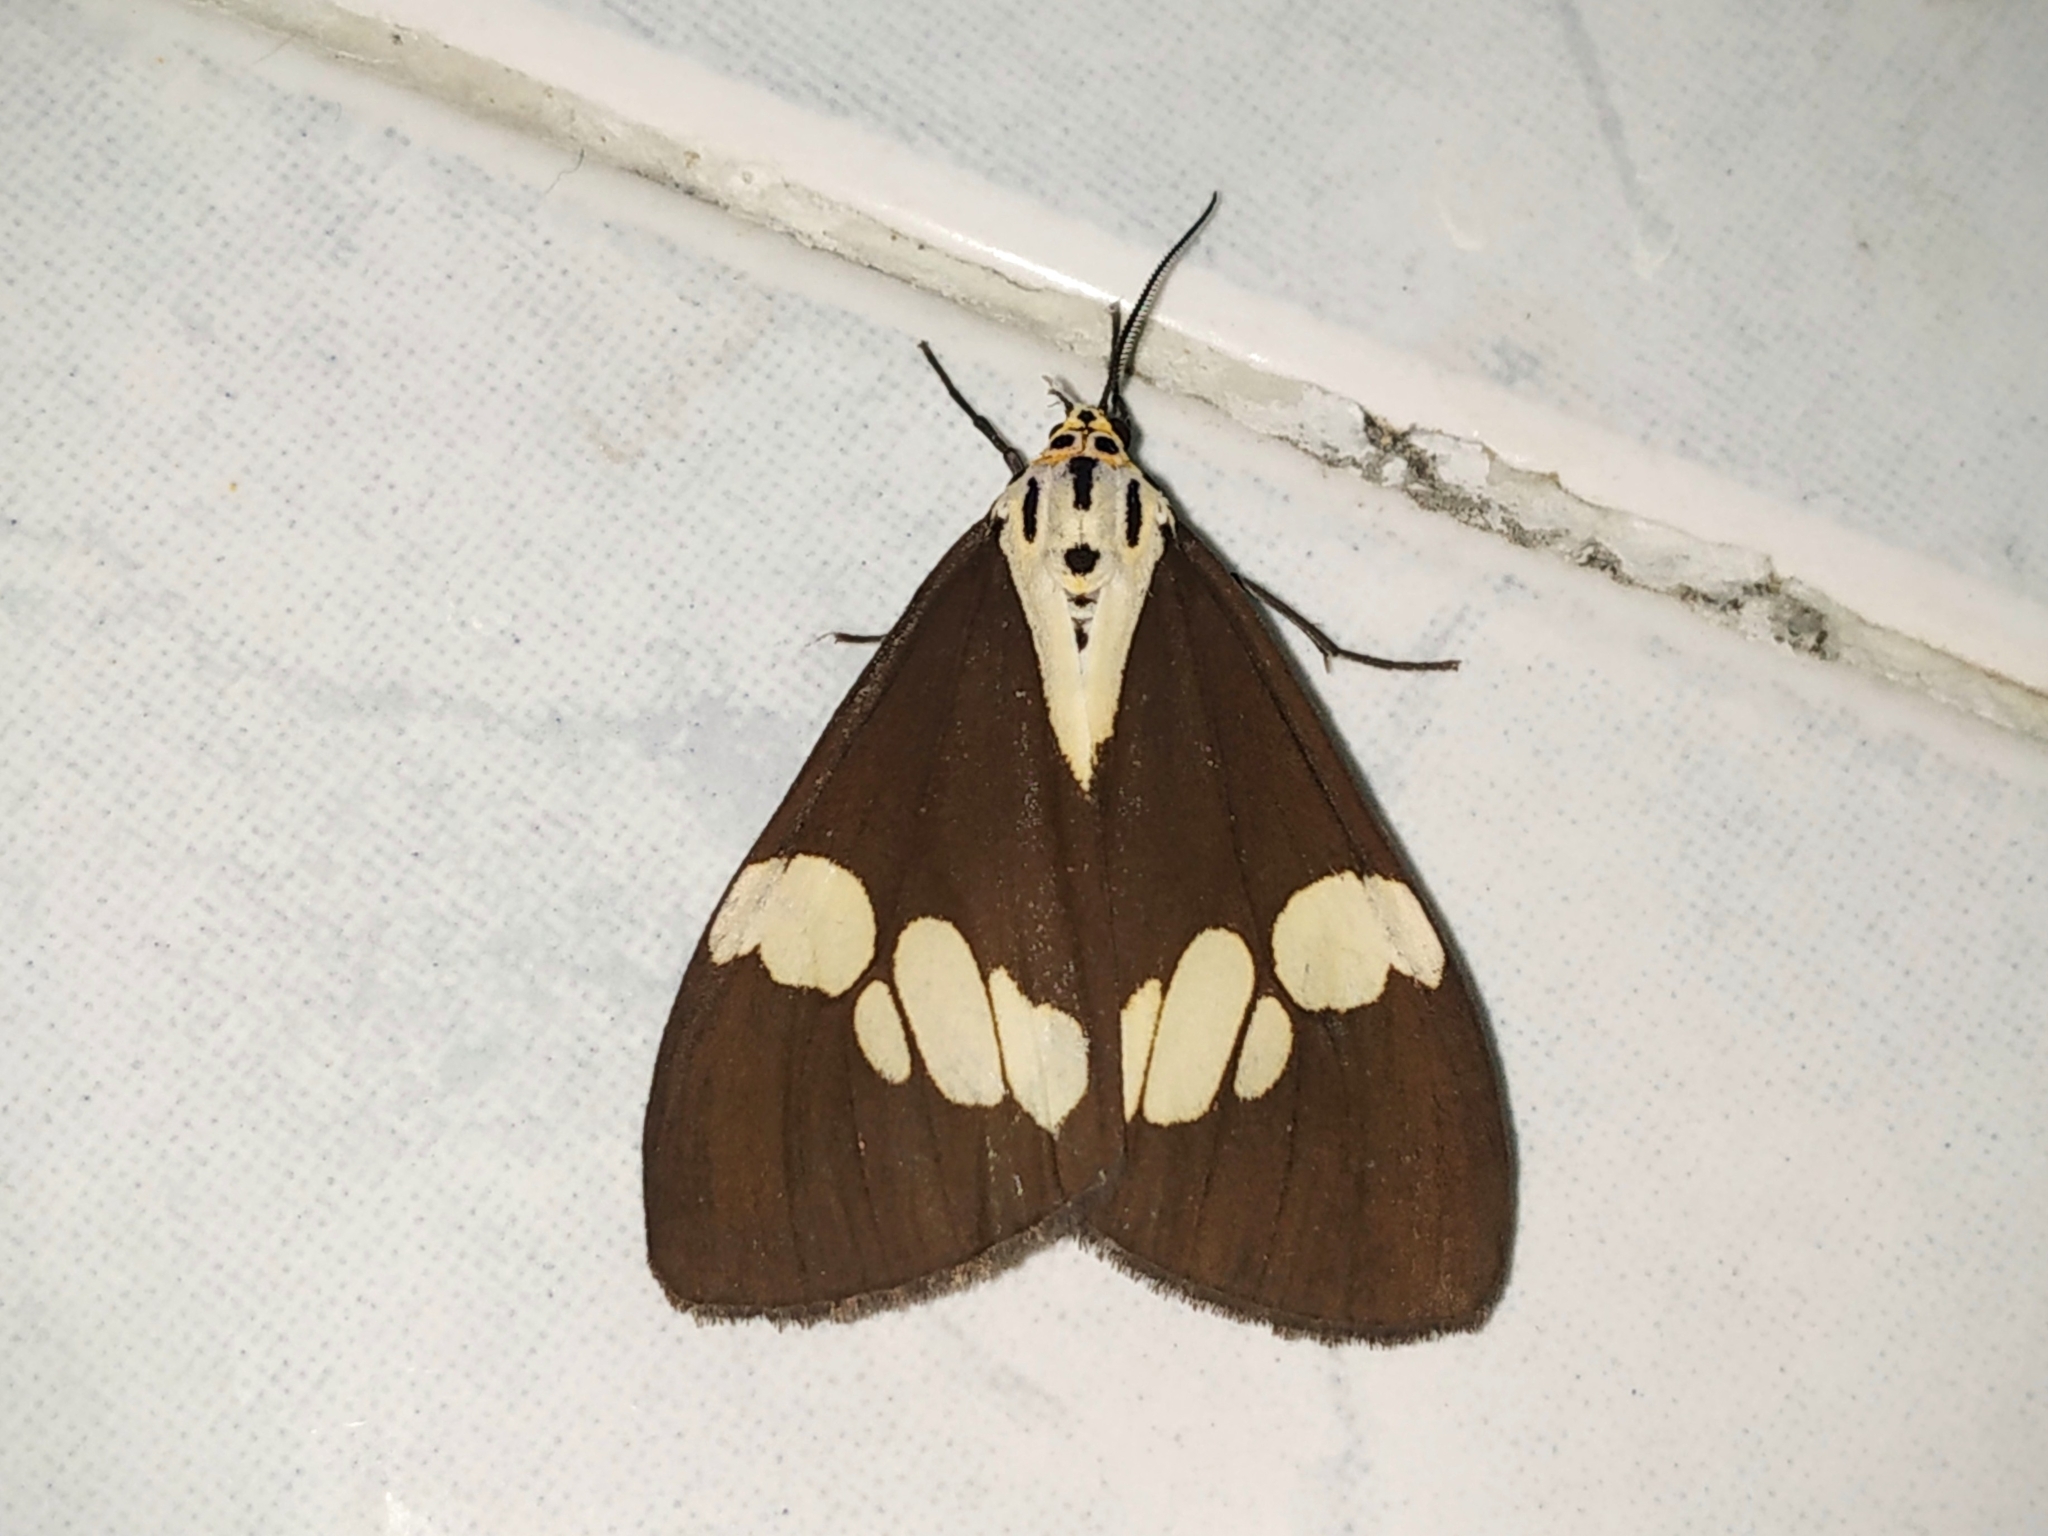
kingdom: Animalia
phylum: Arthropoda
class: Insecta
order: Lepidoptera
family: Erebidae
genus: Nyctemera
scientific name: Nyctemera lacticinia
